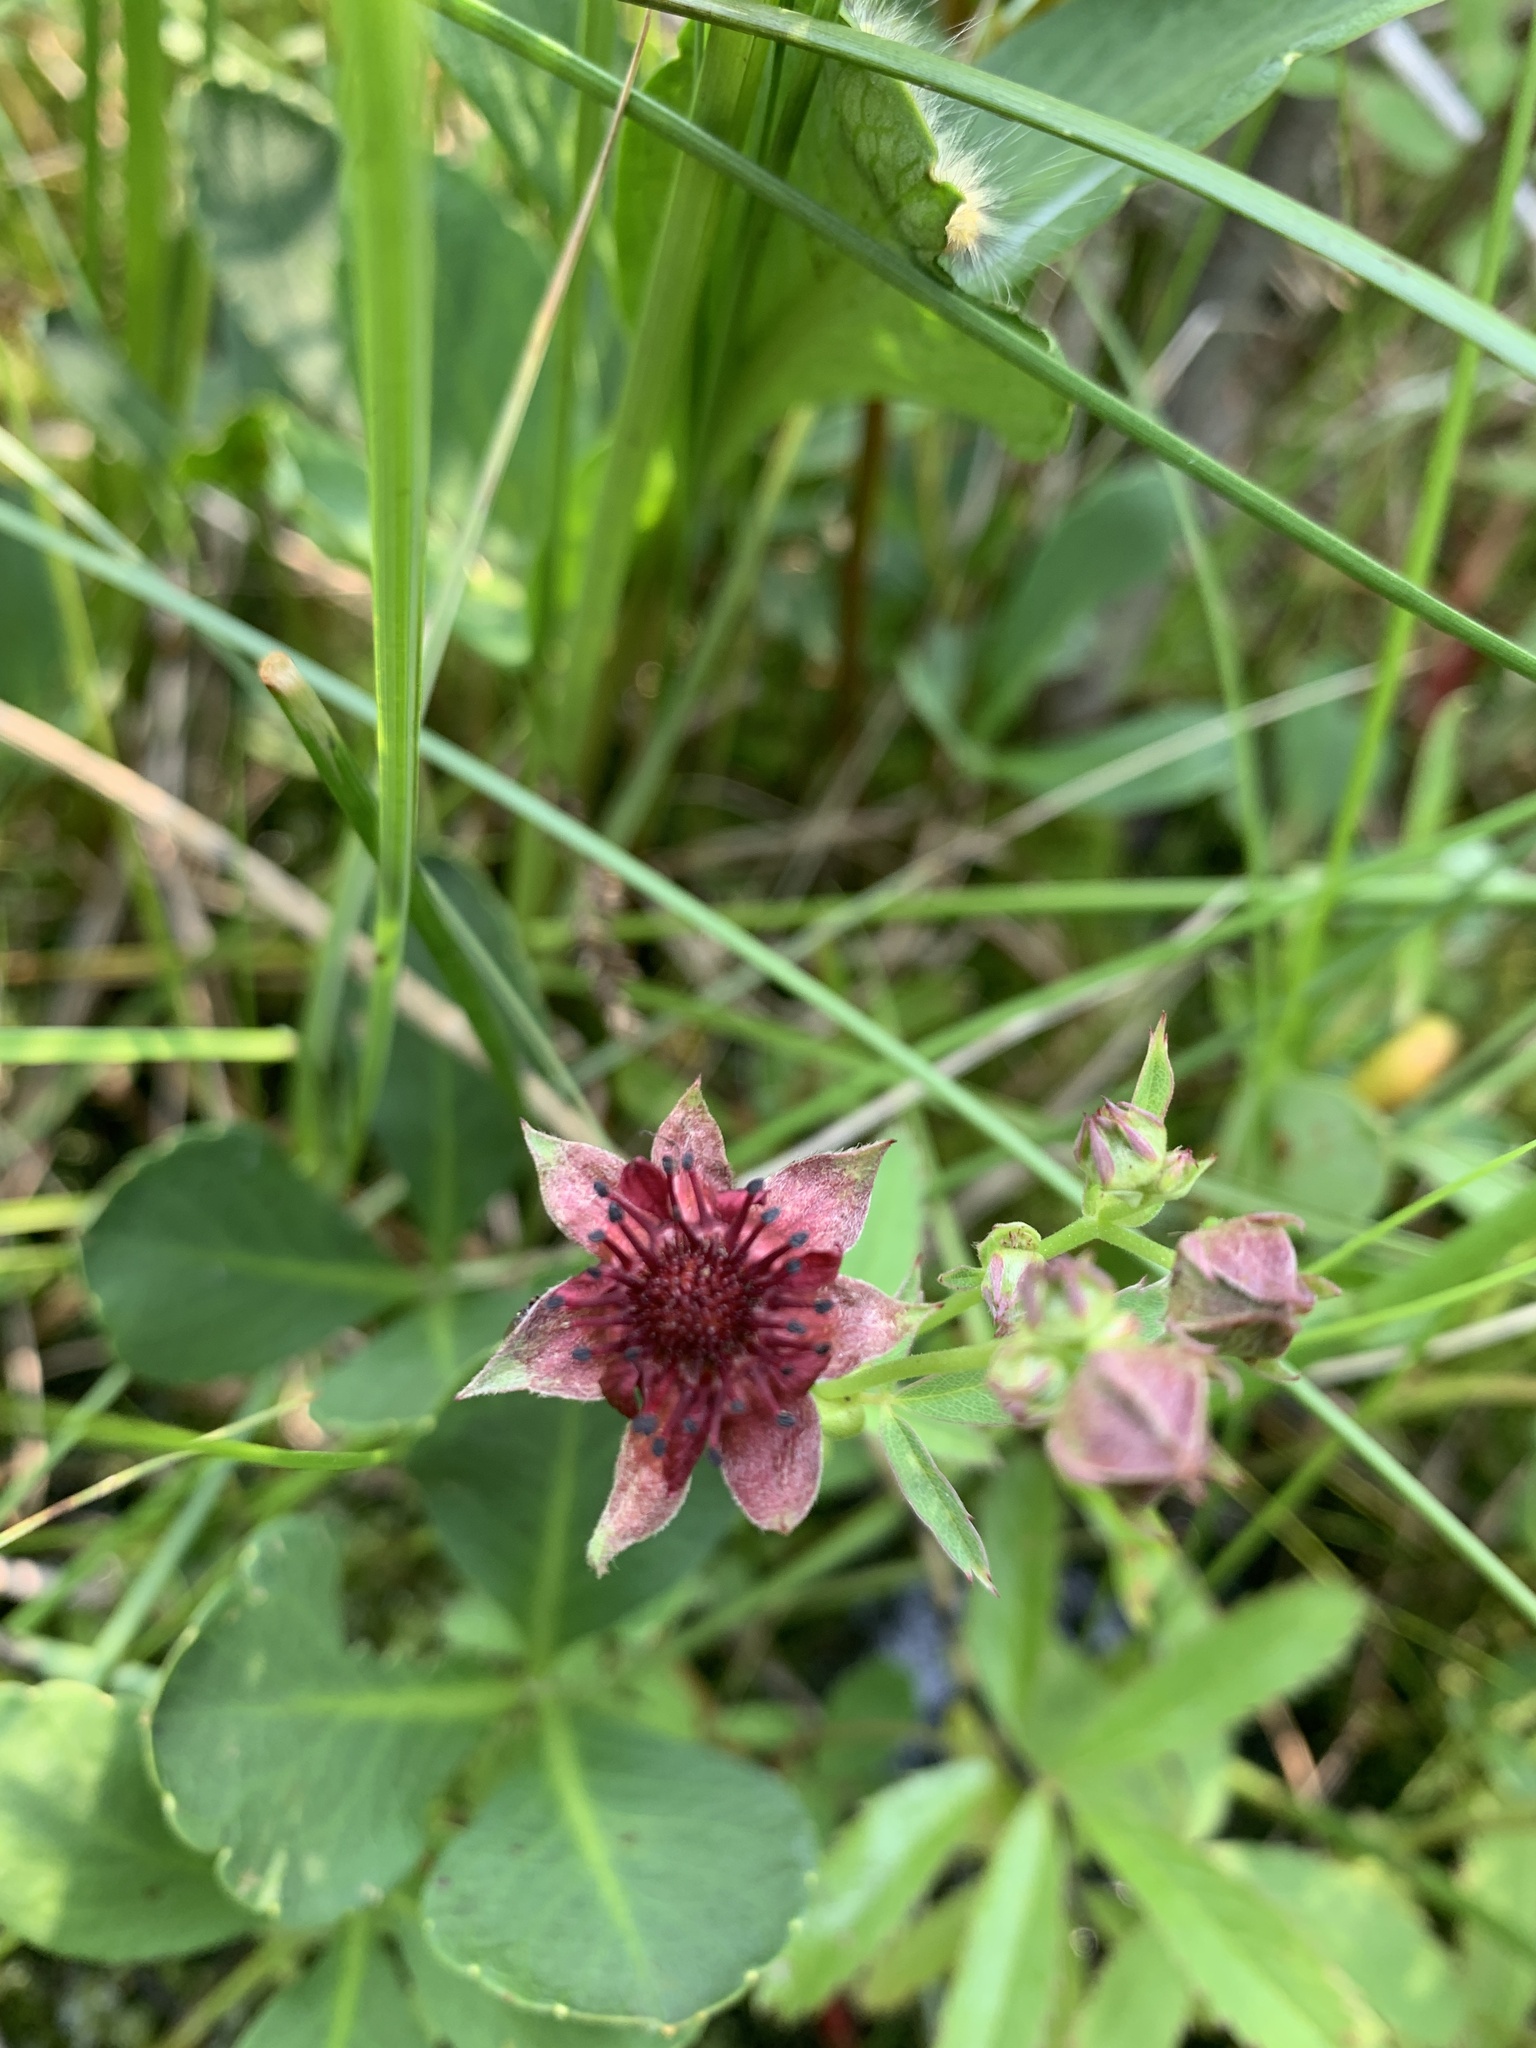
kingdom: Plantae
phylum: Tracheophyta
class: Magnoliopsida
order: Rosales
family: Rosaceae
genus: Comarum
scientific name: Comarum palustre
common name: Marsh cinquefoil
